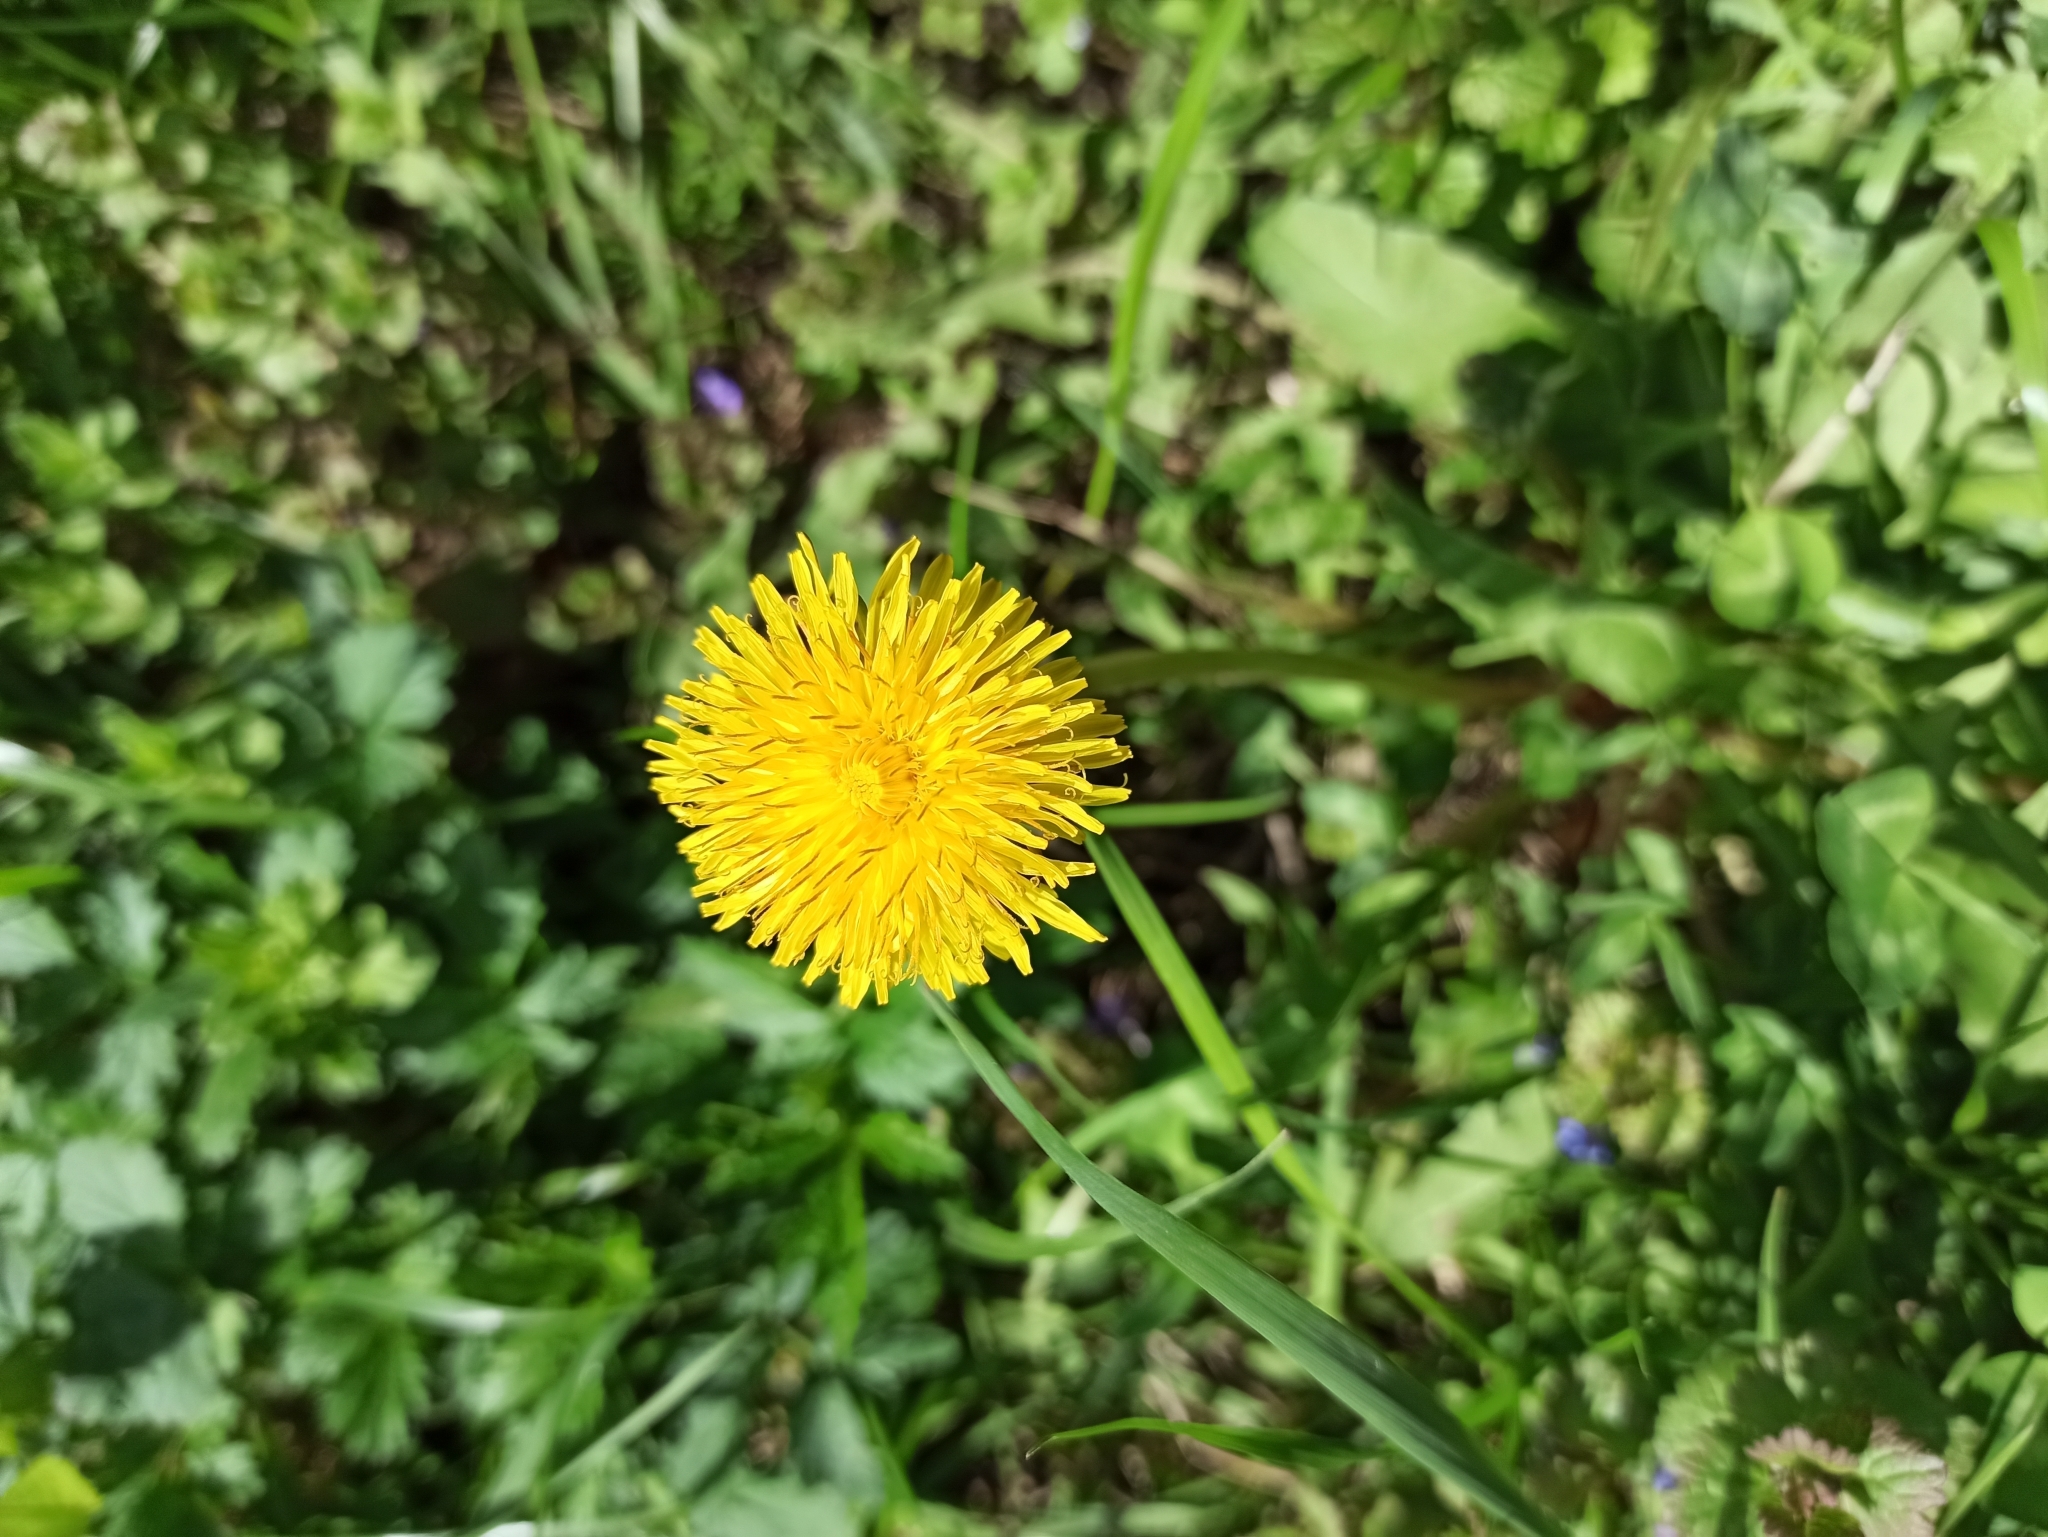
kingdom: Plantae
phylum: Tracheophyta
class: Magnoliopsida
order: Asterales
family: Asteraceae
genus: Taraxacum
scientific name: Taraxacum officinale
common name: Common dandelion
